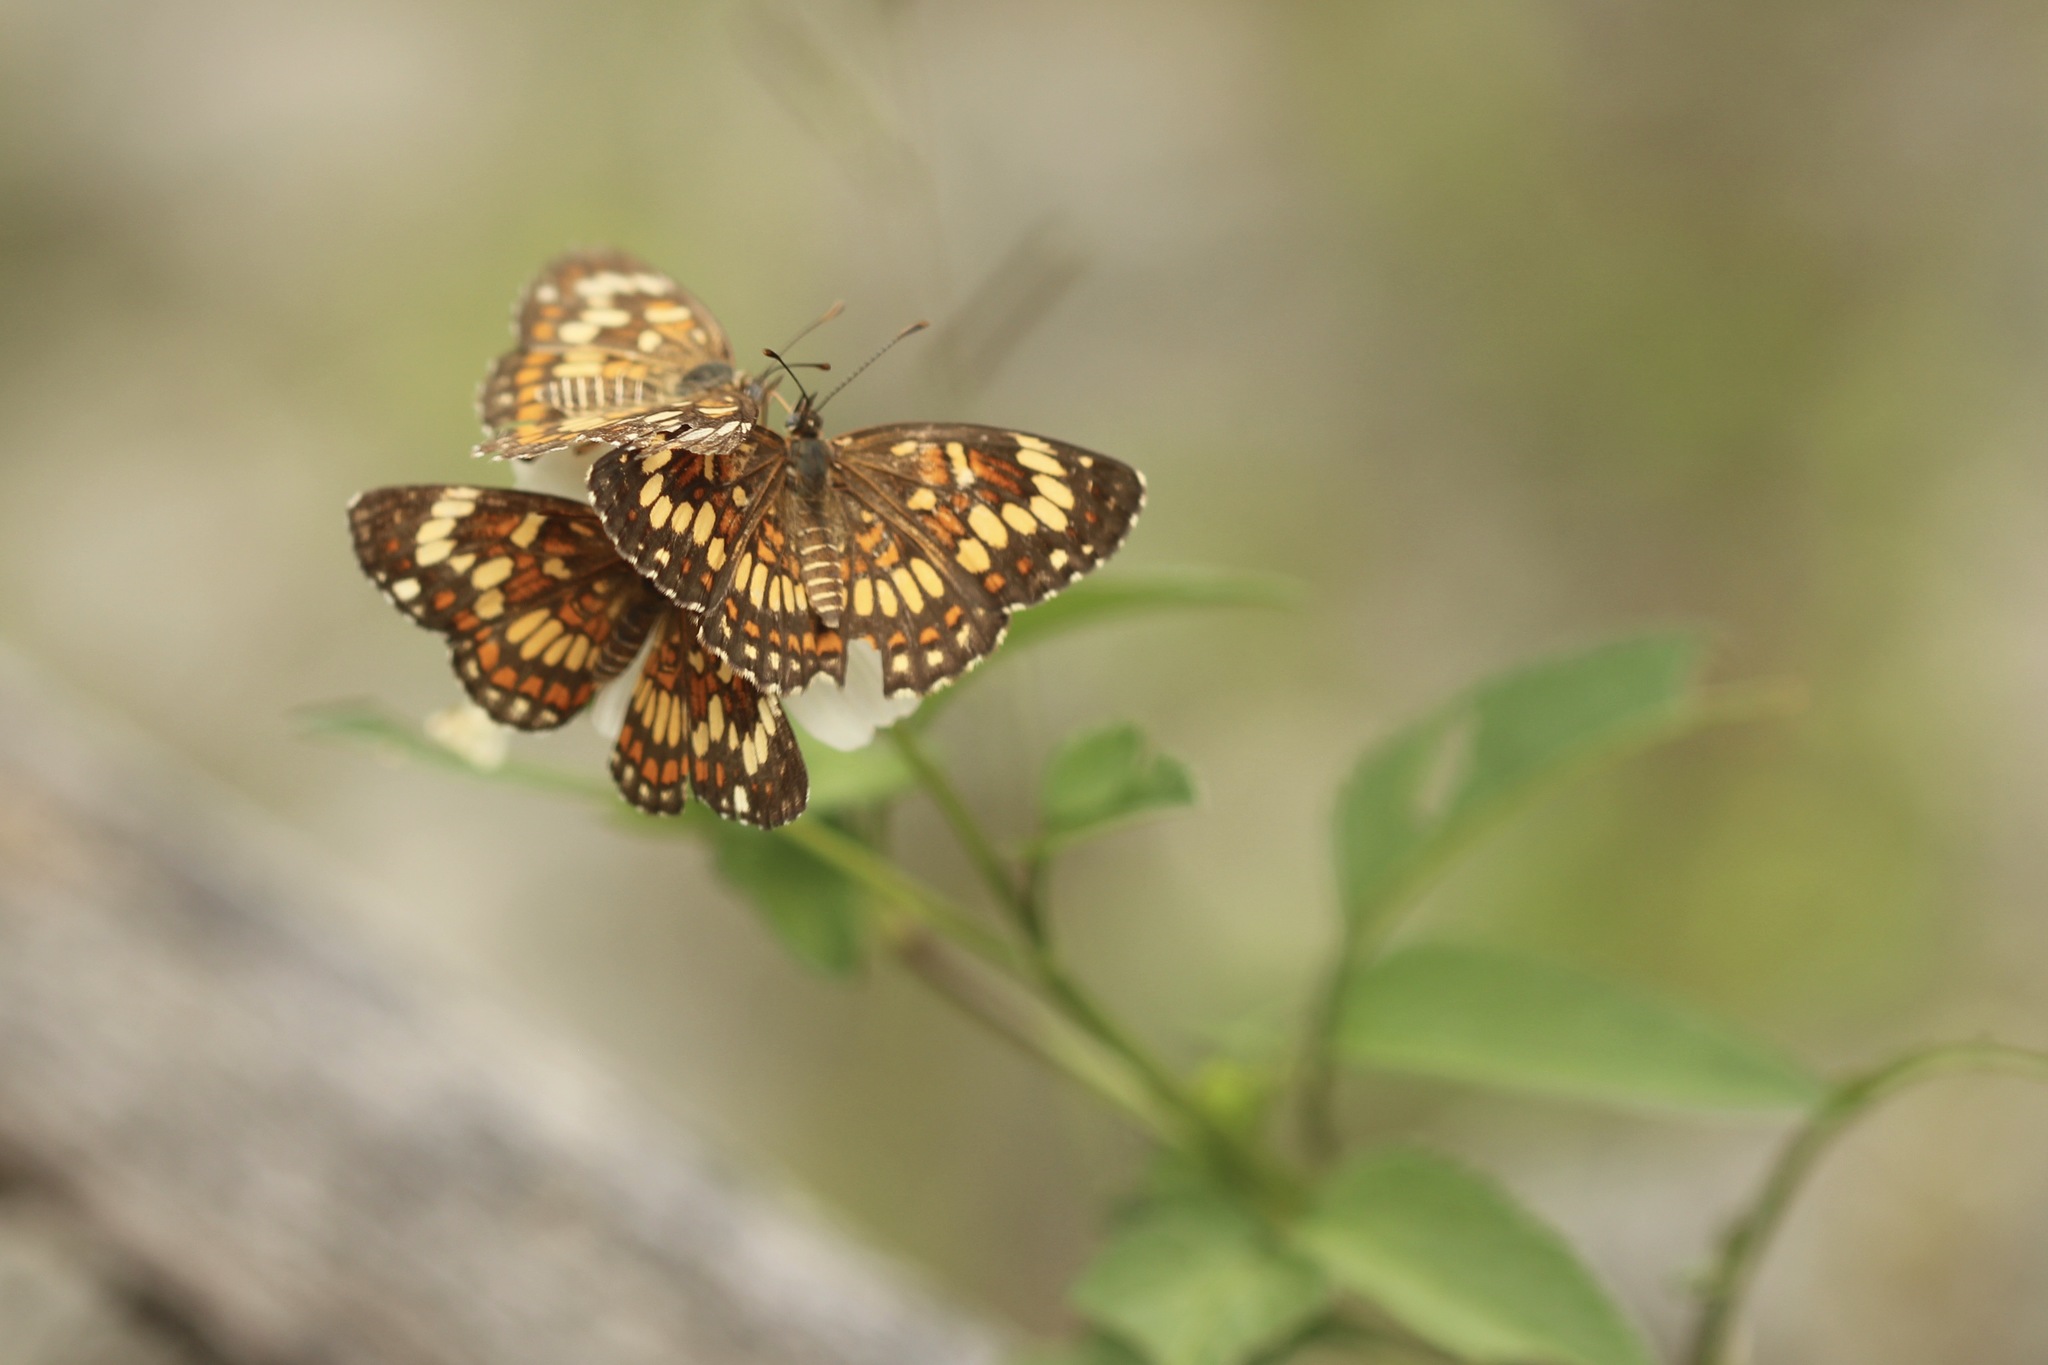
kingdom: Animalia
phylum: Arthropoda
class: Insecta
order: Lepidoptera
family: Nymphalidae
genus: Thessalia
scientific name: Thessalia theona
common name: Nymphalid moth
